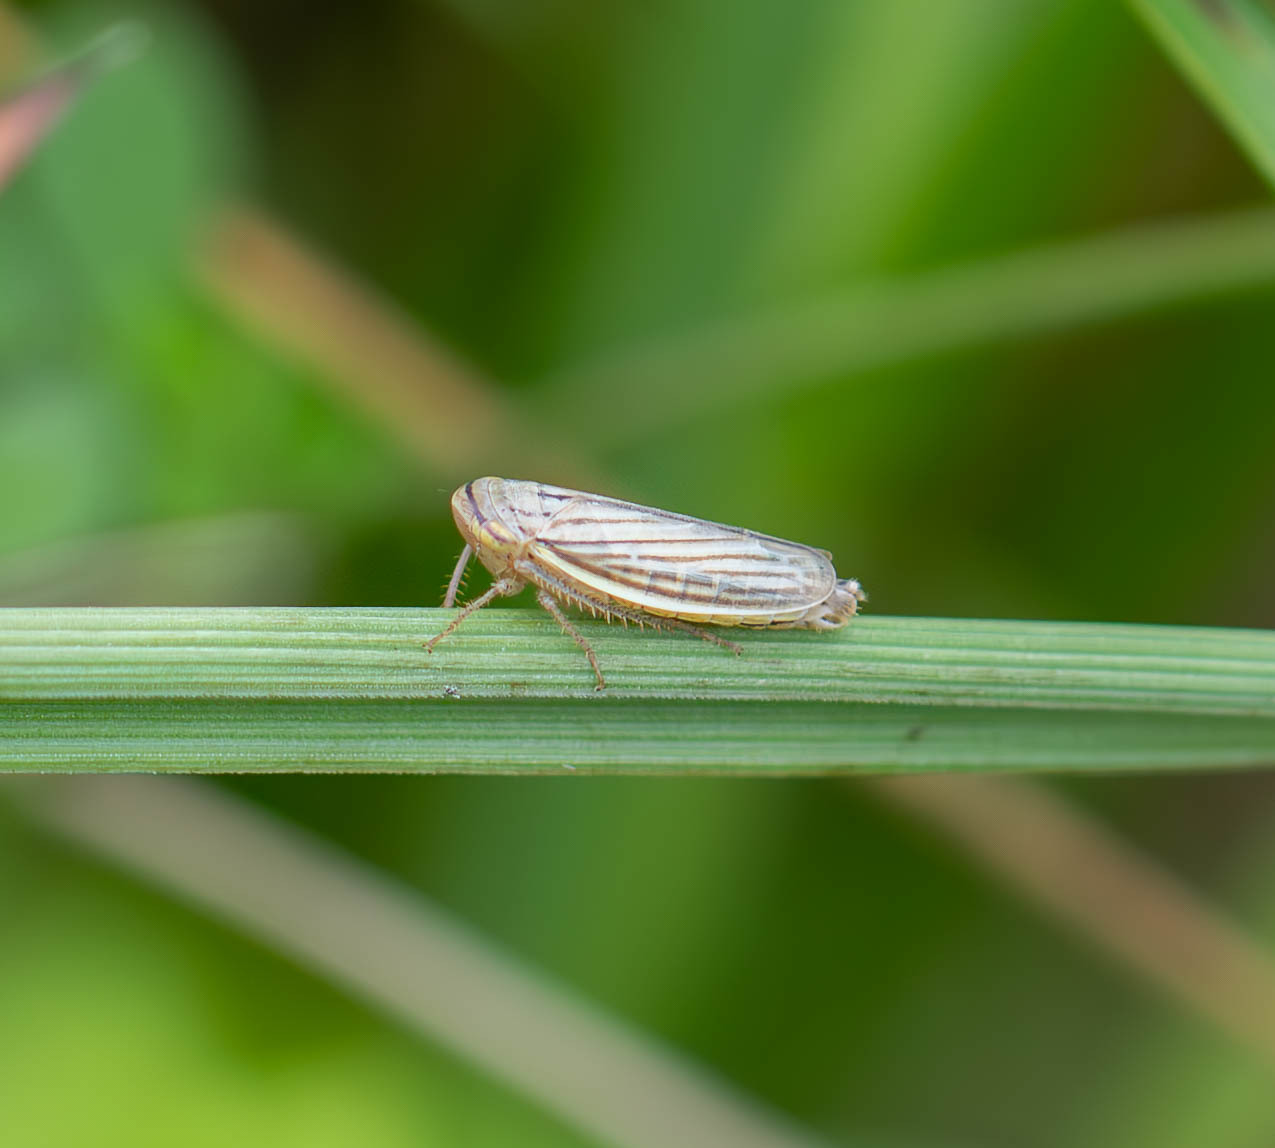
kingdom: Animalia
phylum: Arthropoda
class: Insecta
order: Hemiptera
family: Cicadellidae
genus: Athysanus
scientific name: Athysanus argentarius
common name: Silver leafhopper
